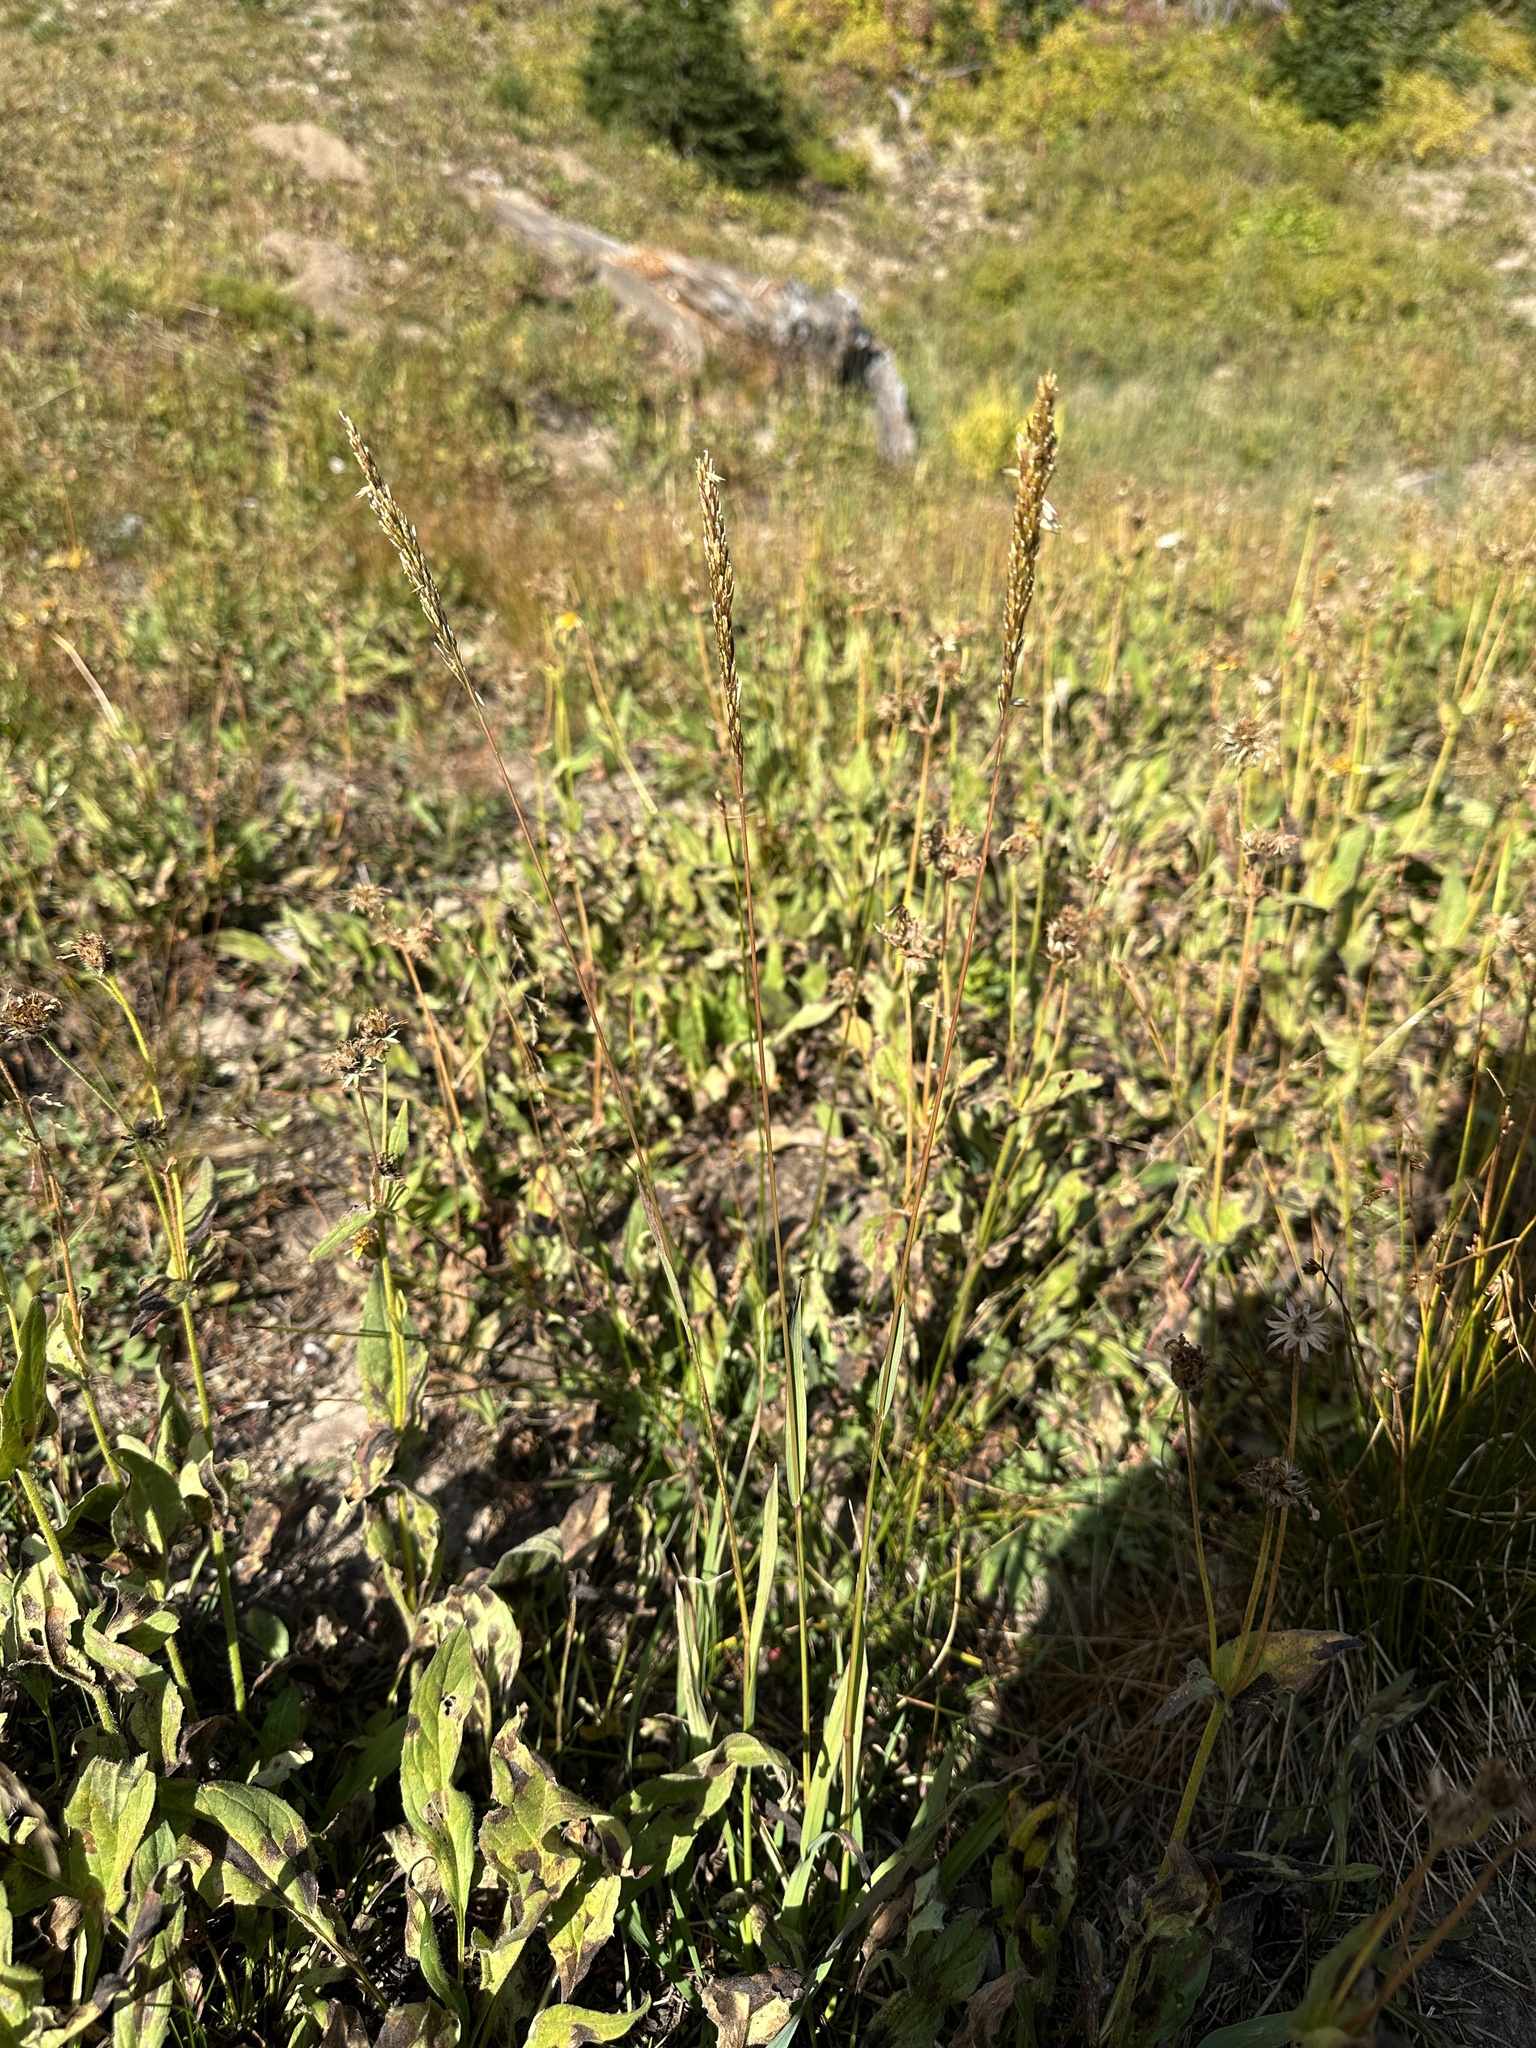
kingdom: Plantae
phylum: Tracheophyta
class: Liliopsida
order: Poales
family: Poaceae
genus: Graphephorum
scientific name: Graphephorum wolfii
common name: Wolf's trisetum
